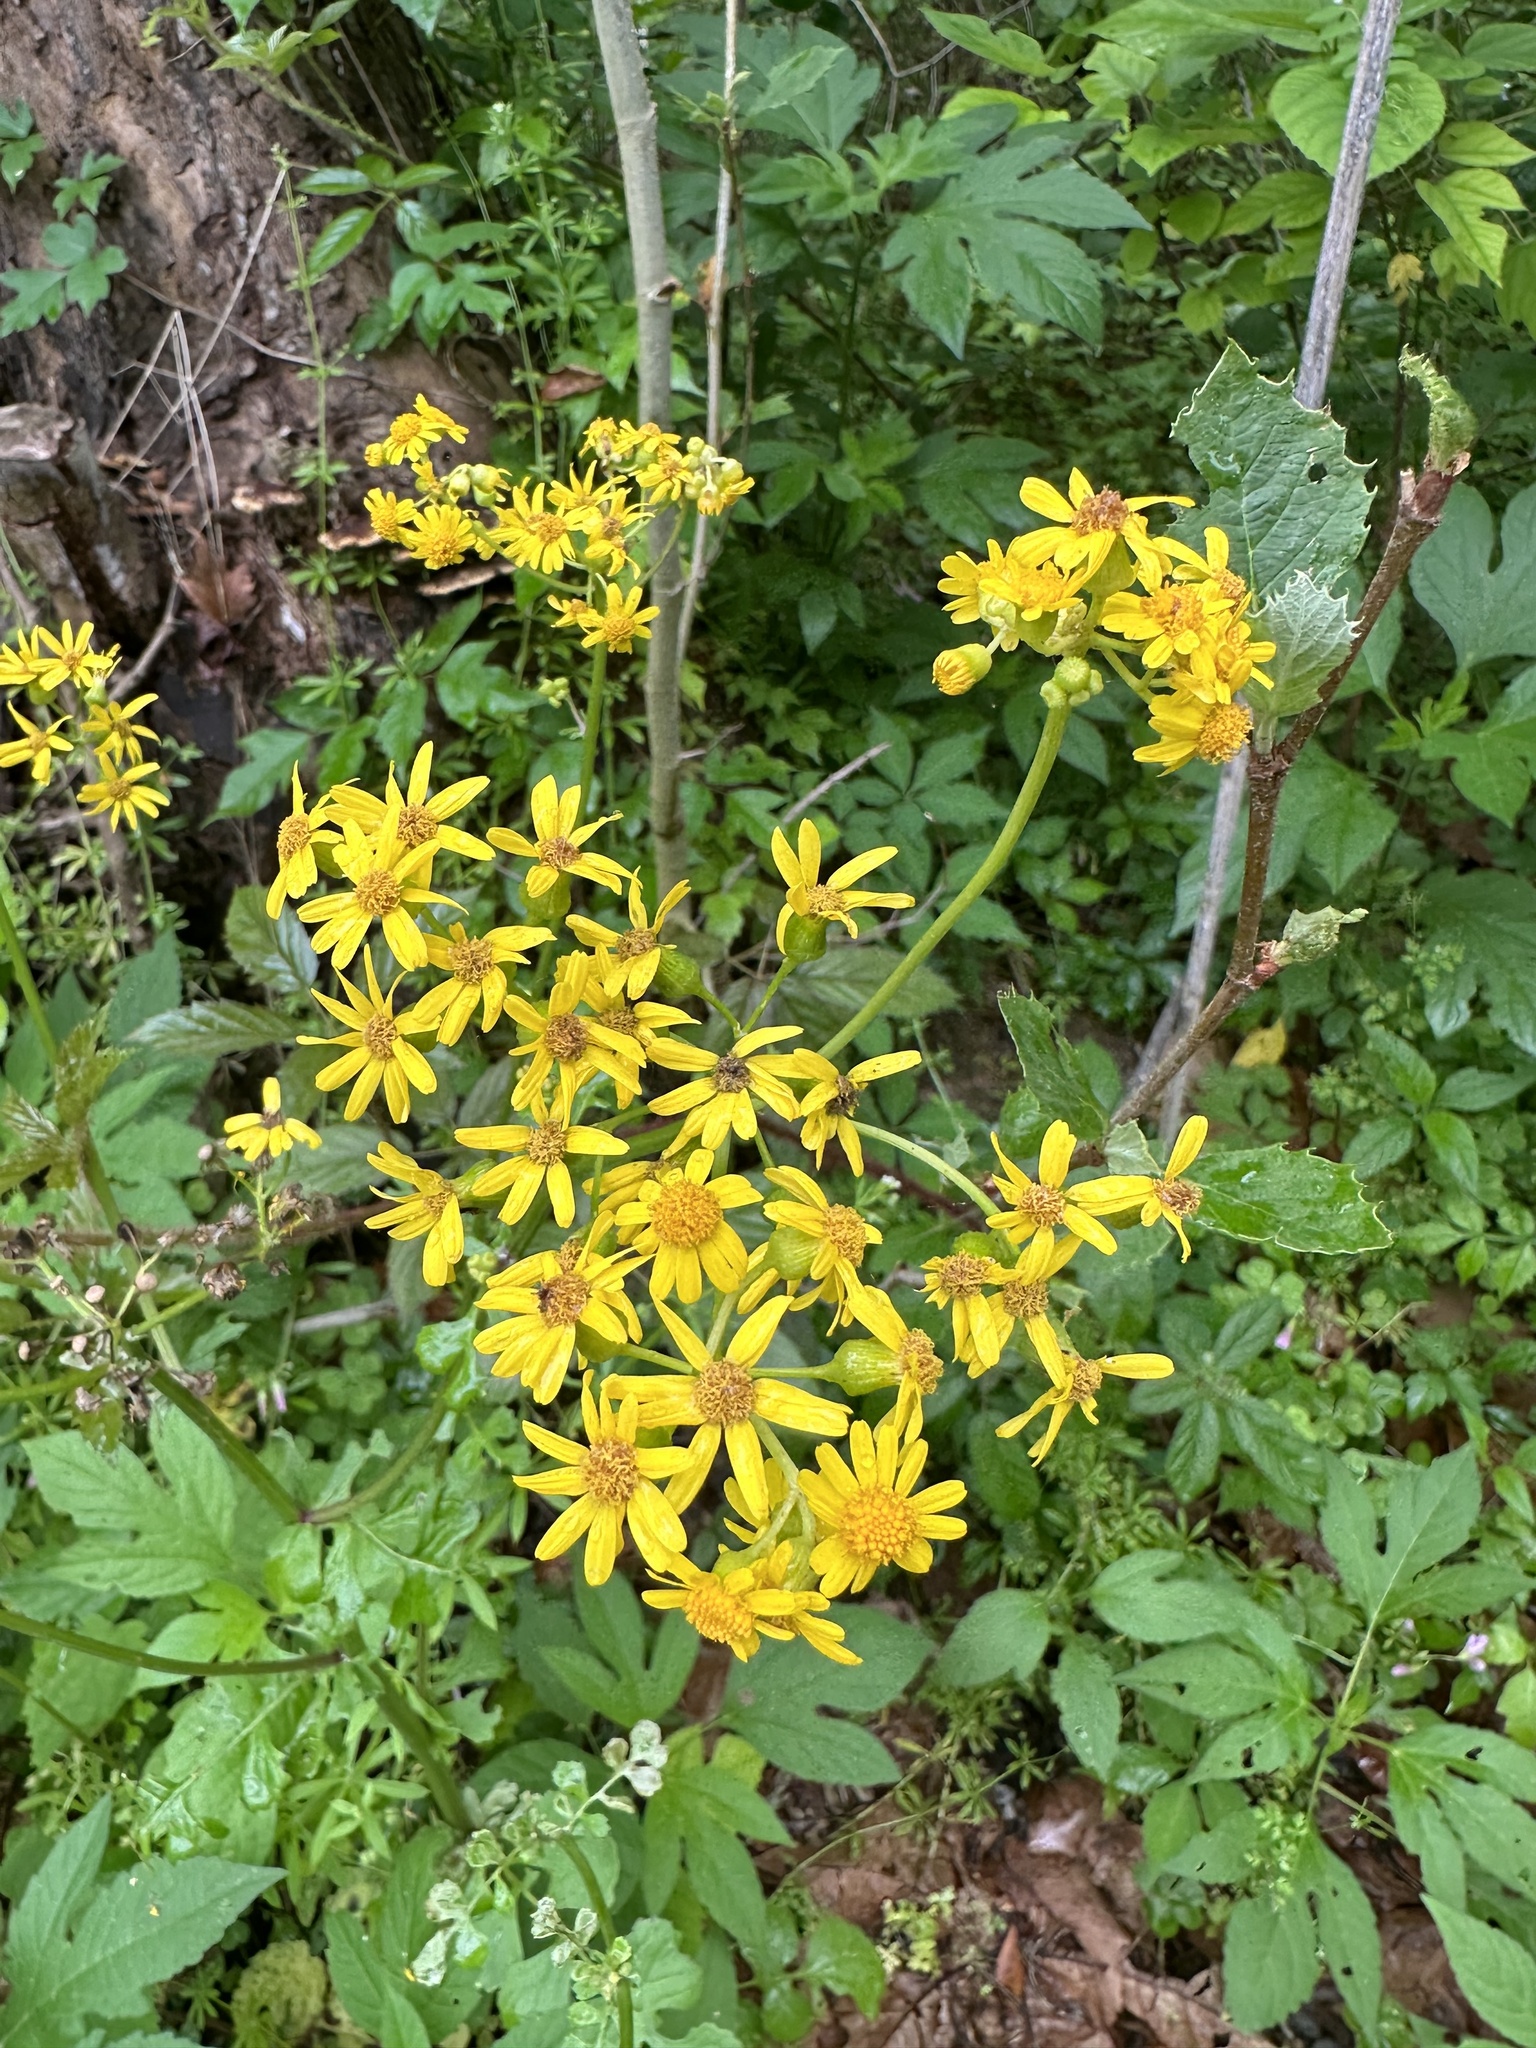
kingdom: Plantae
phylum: Tracheophyta
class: Magnoliopsida
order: Asterales
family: Asteraceae
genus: Packera
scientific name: Packera glabella
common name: Butterweed
